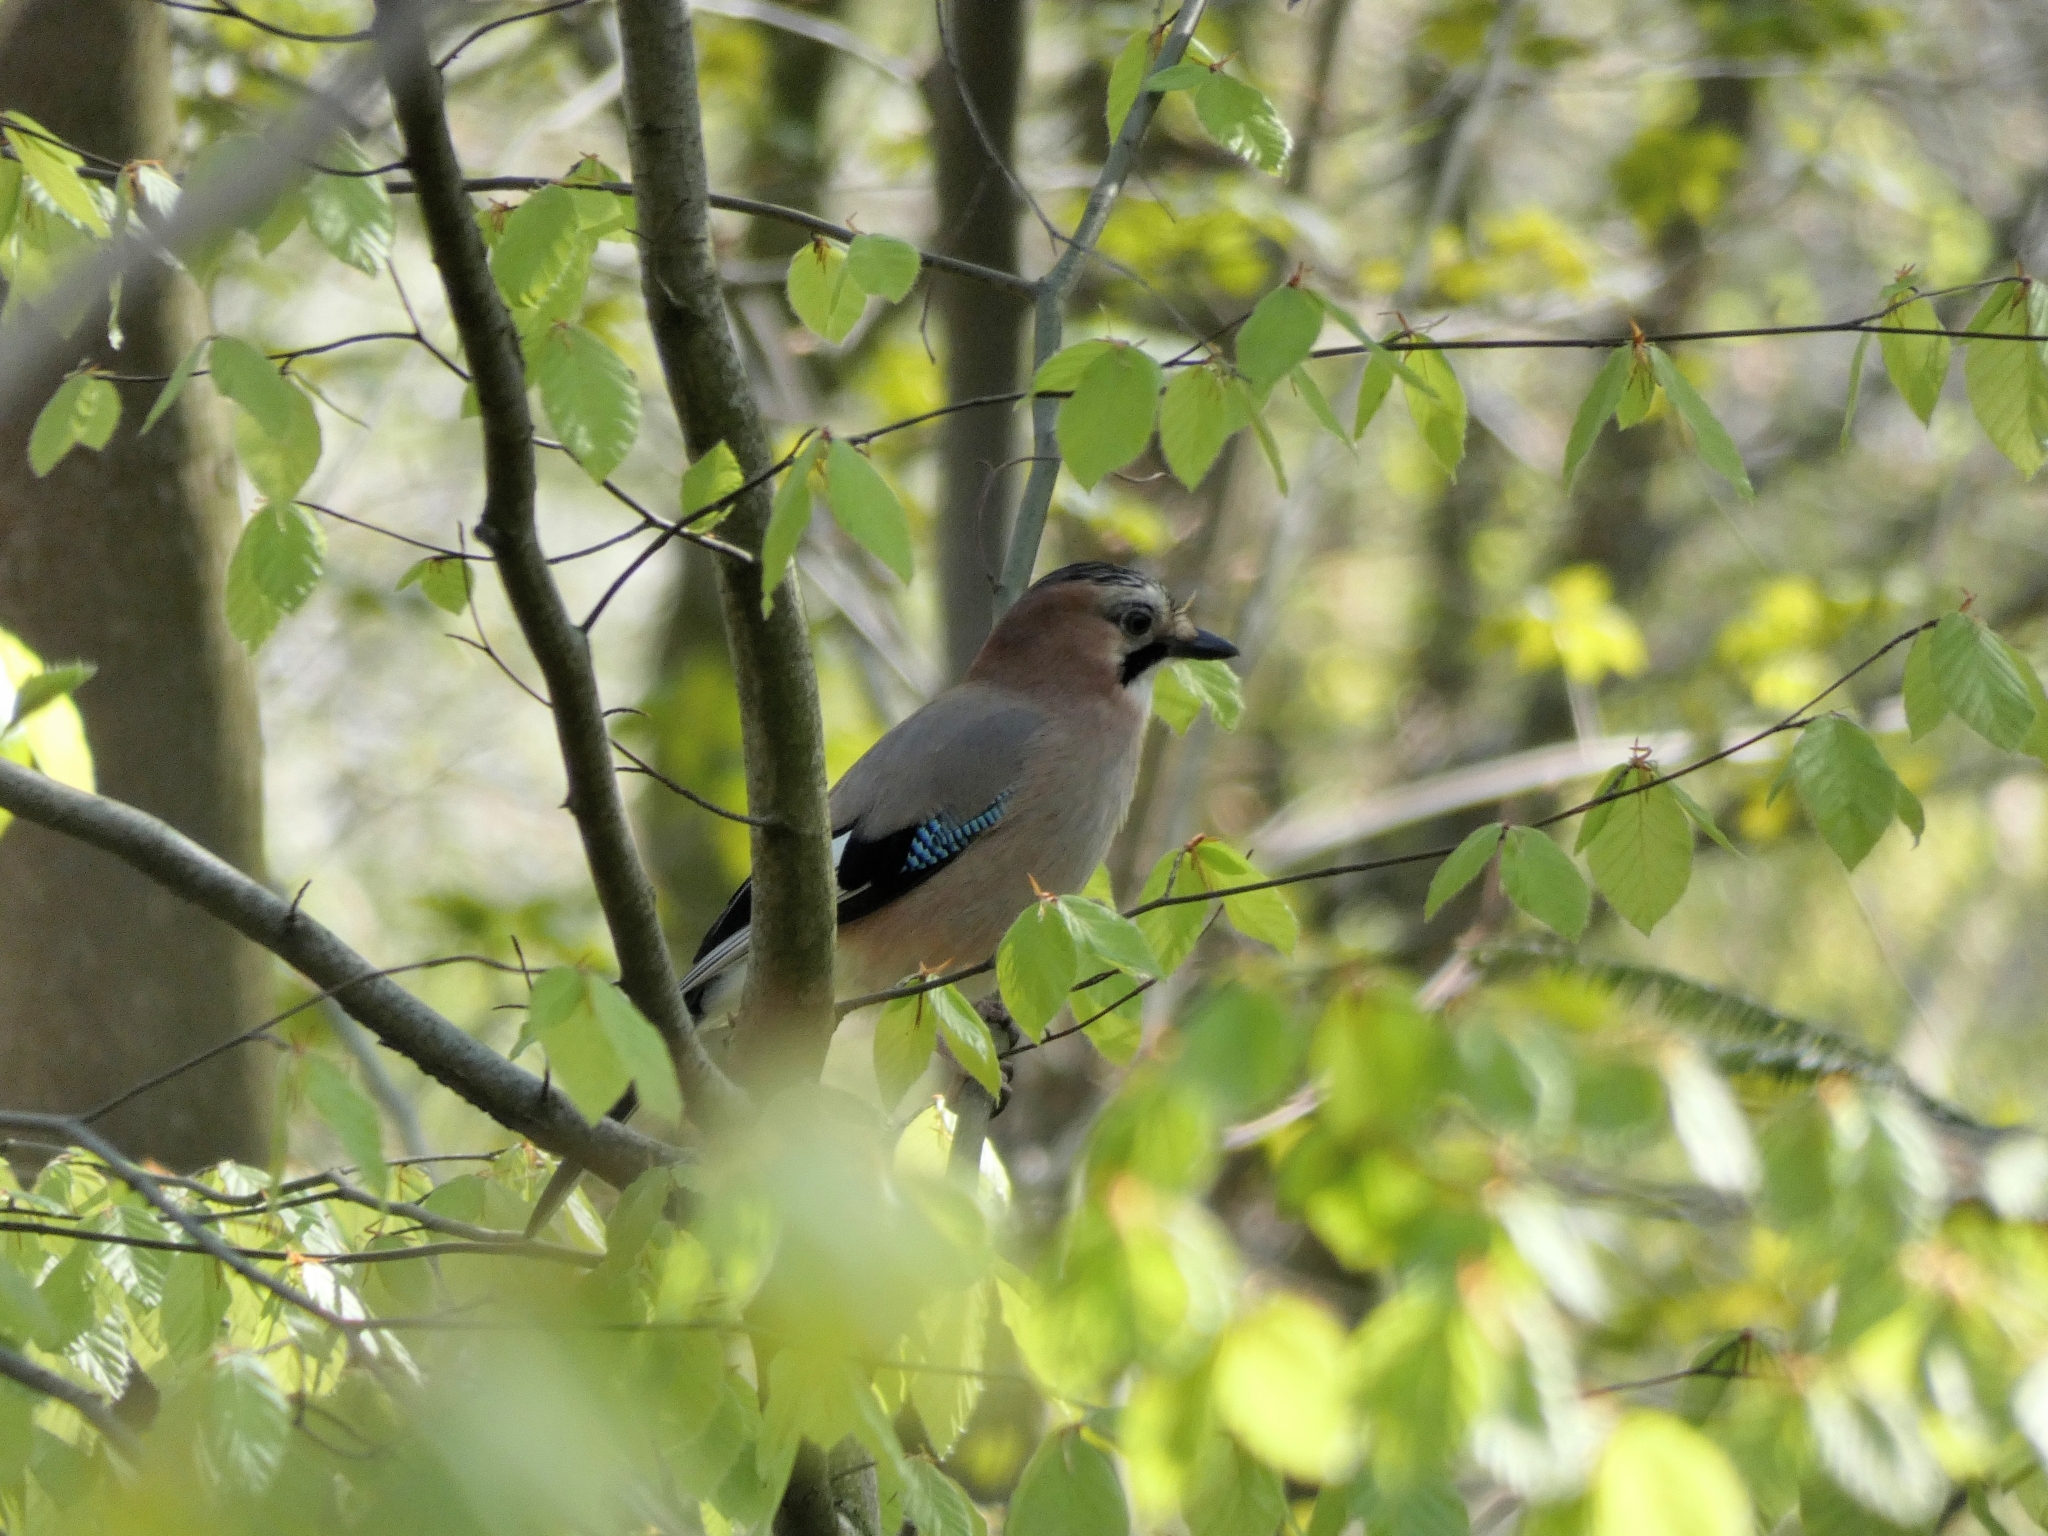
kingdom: Animalia
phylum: Chordata
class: Aves
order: Passeriformes
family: Corvidae
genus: Garrulus
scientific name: Garrulus glandarius
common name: Eurasian jay
